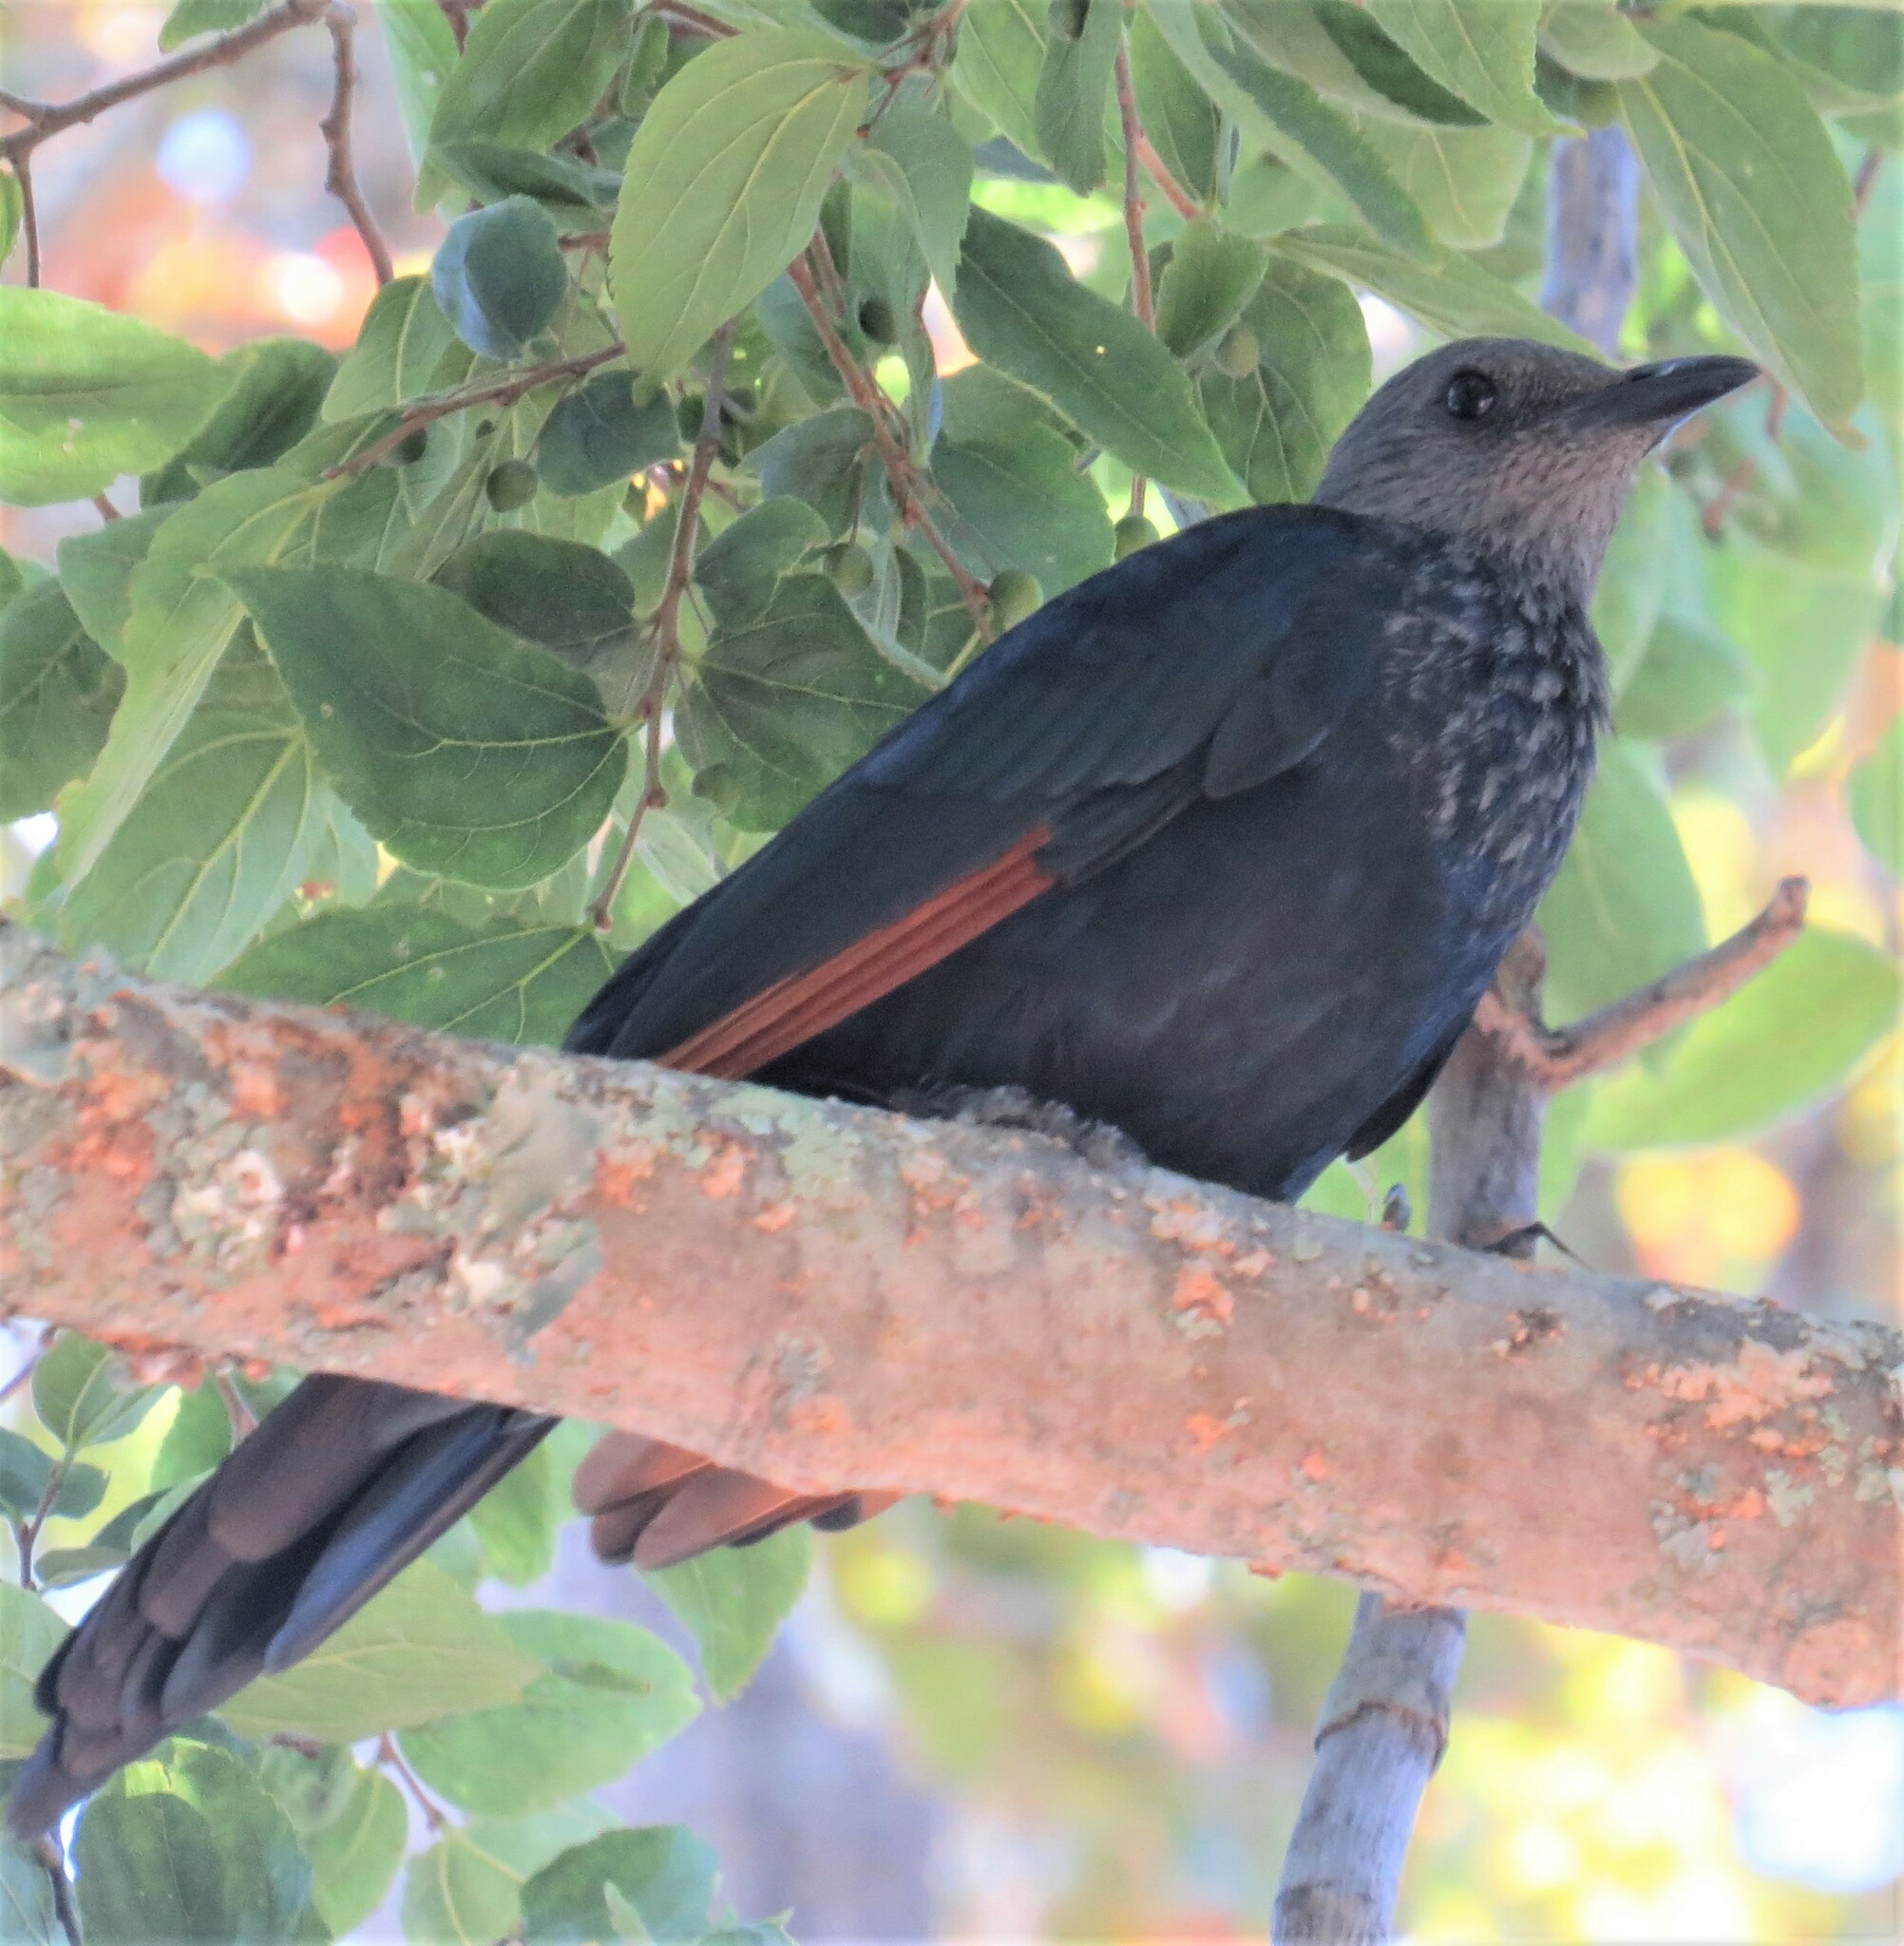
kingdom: Animalia
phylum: Chordata
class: Aves
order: Passeriformes
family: Sturnidae
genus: Onychognathus
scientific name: Onychognathus morio
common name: Red-winged starling
